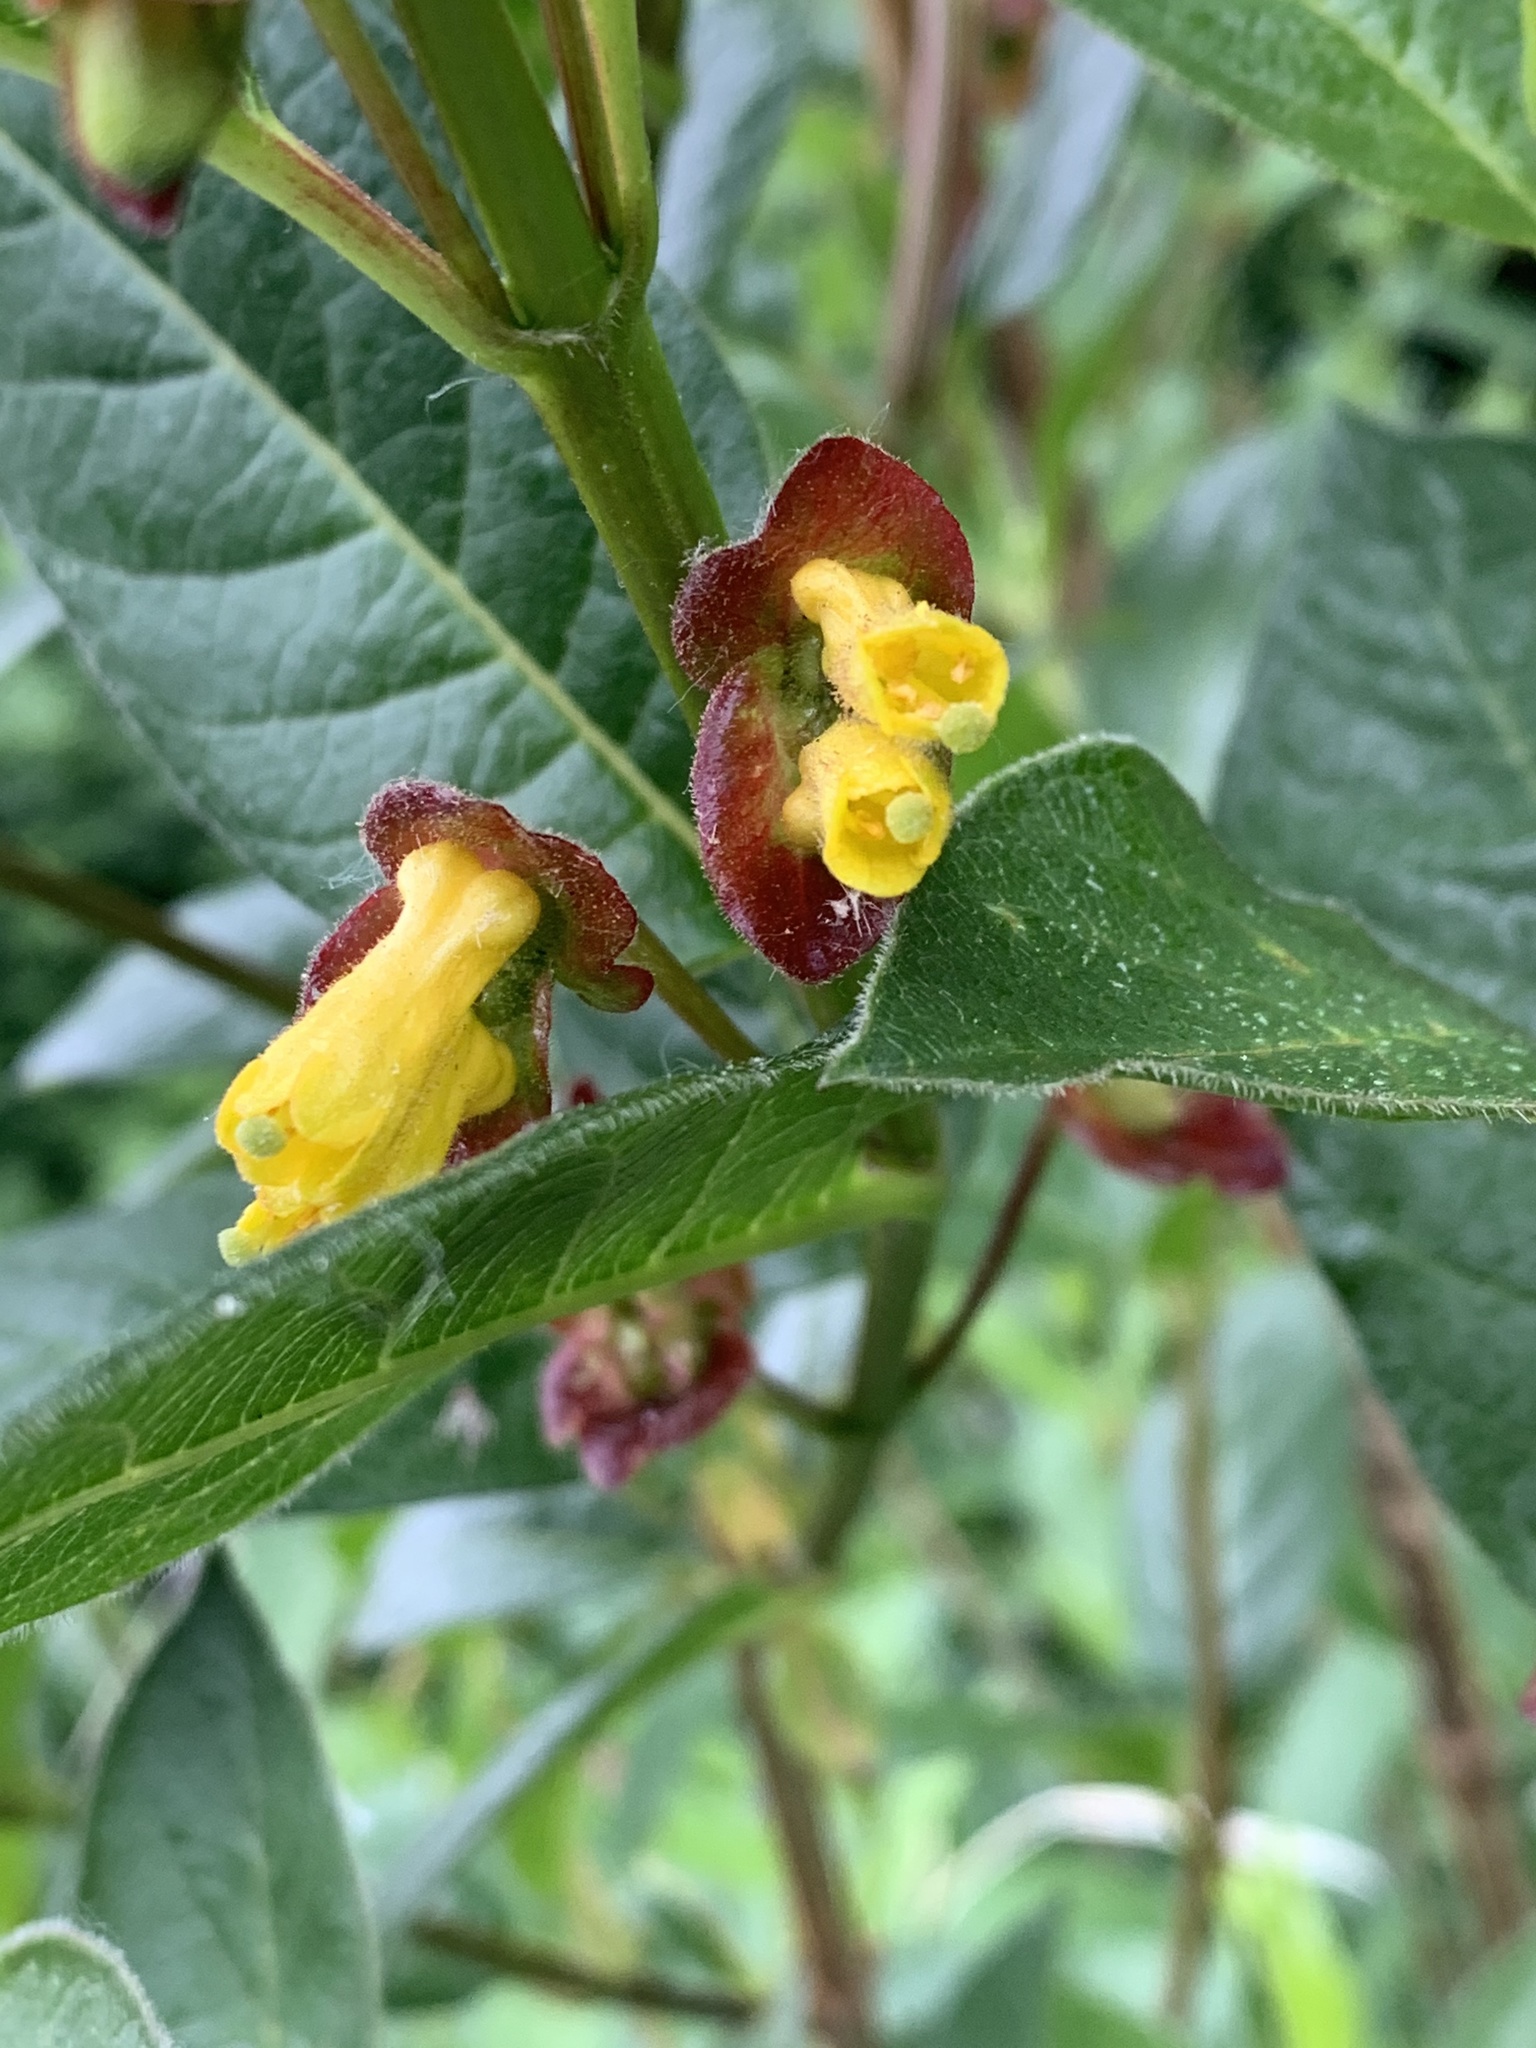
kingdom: Plantae
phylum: Tracheophyta
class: Magnoliopsida
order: Dipsacales
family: Caprifoliaceae
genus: Lonicera
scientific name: Lonicera involucrata
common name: Californian honeysuckle
